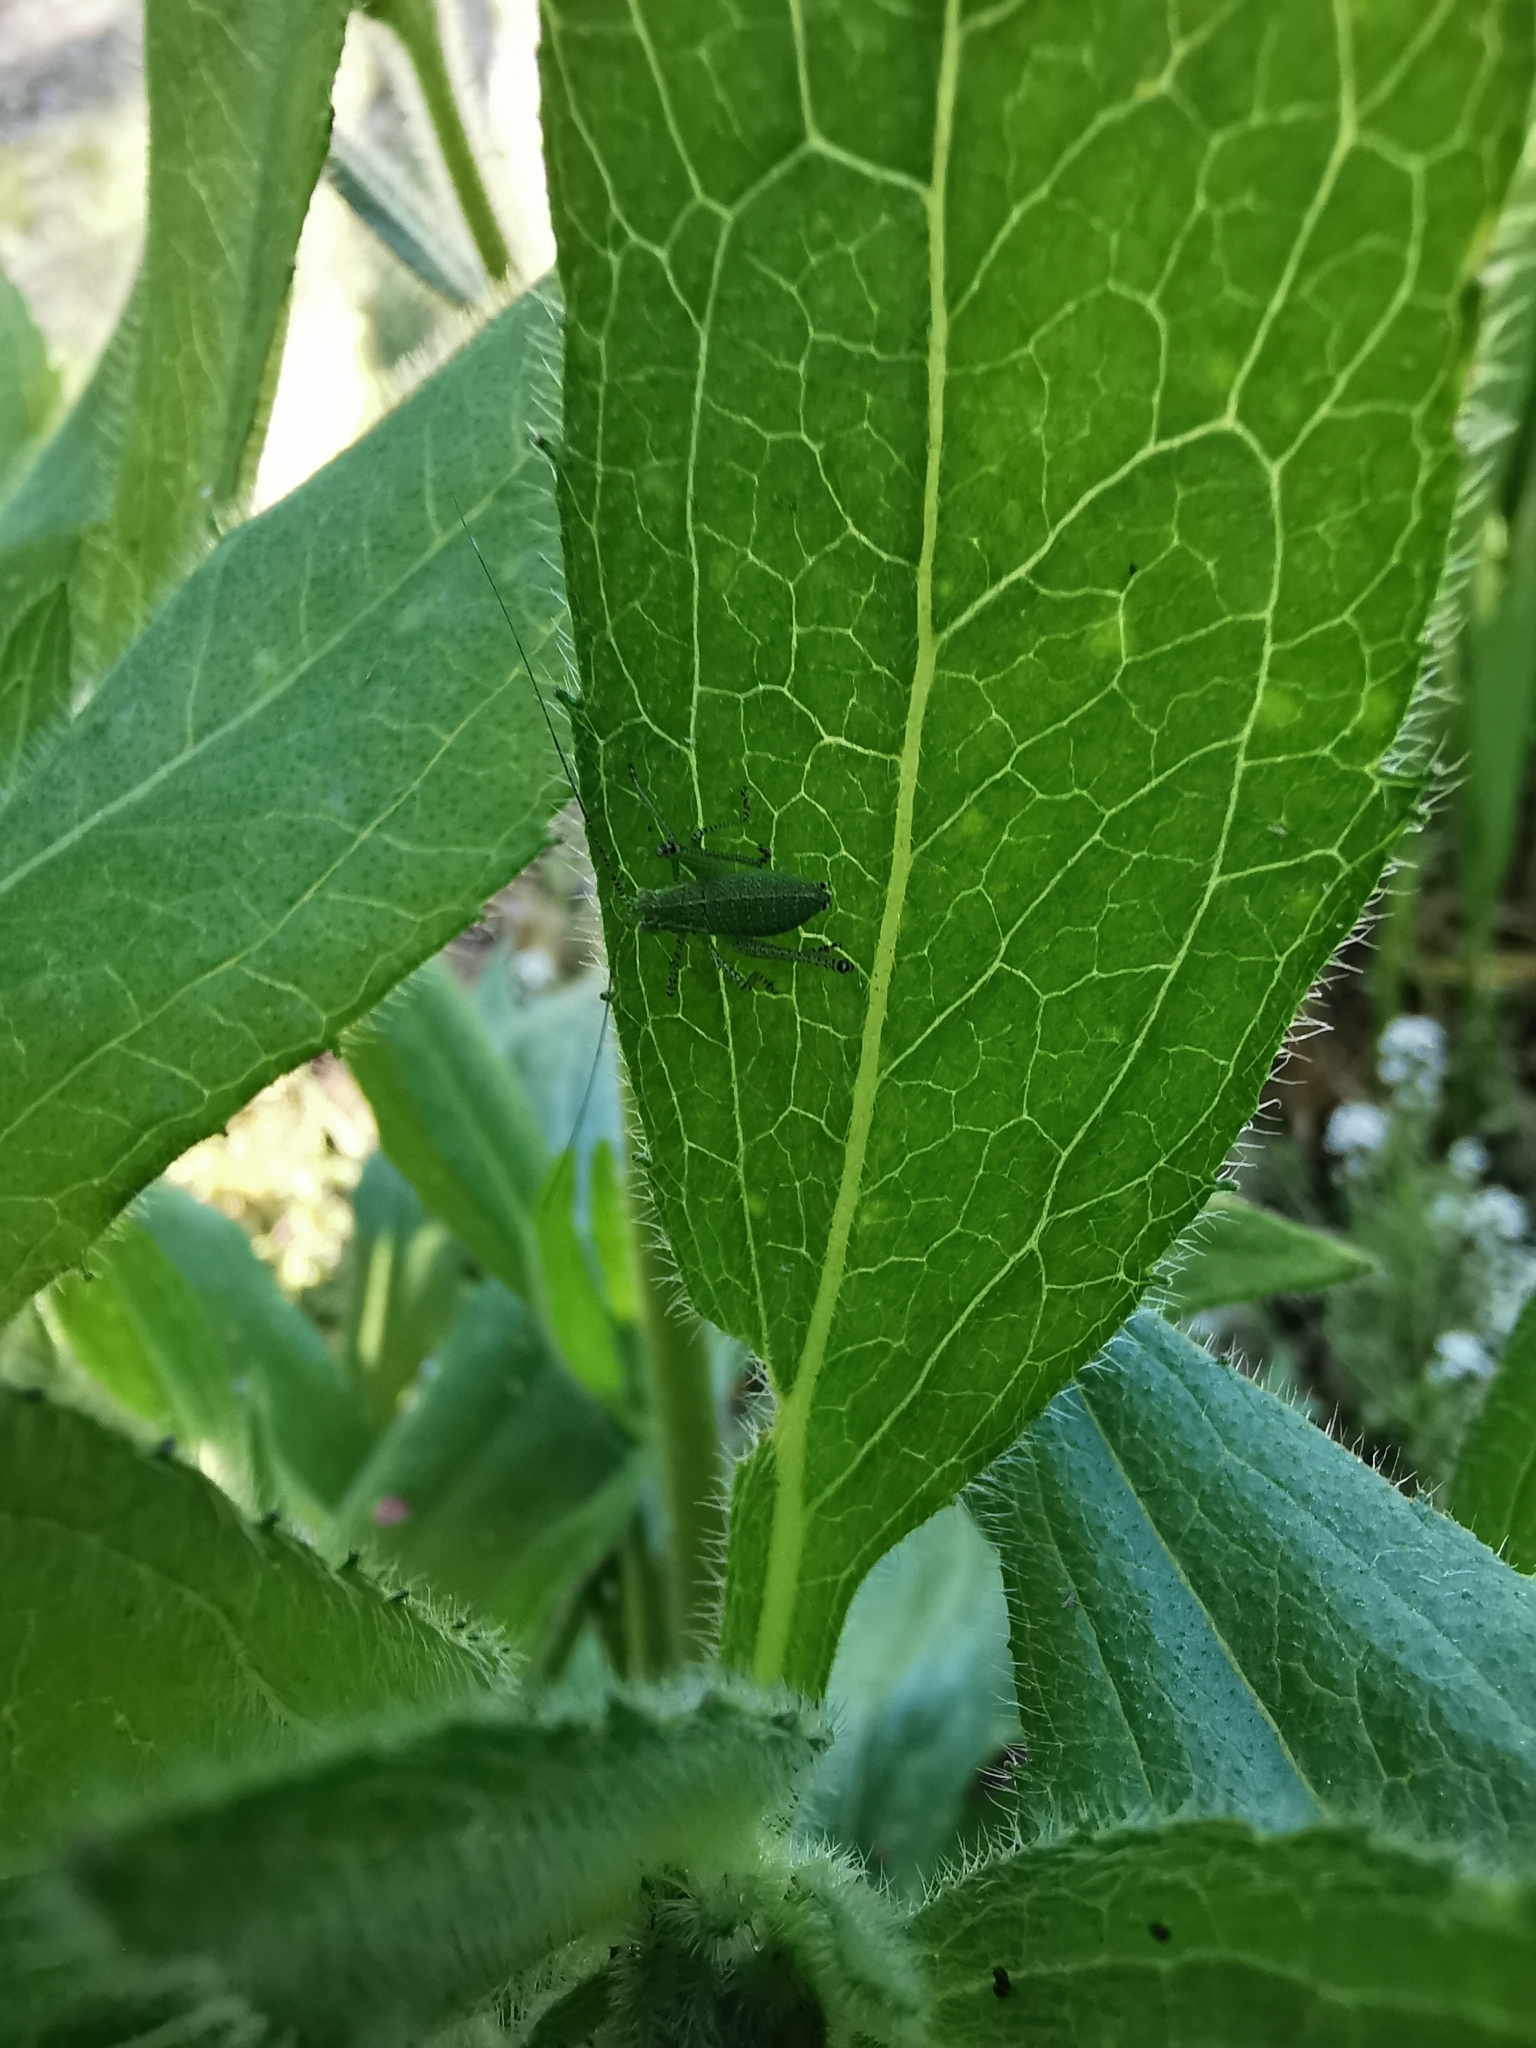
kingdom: Animalia
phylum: Arthropoda
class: Insecta
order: Orthoptera
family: Tettigoniidae
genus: Leptophyes
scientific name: Leptophyes punctatissima
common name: Speckled bush-cricket
